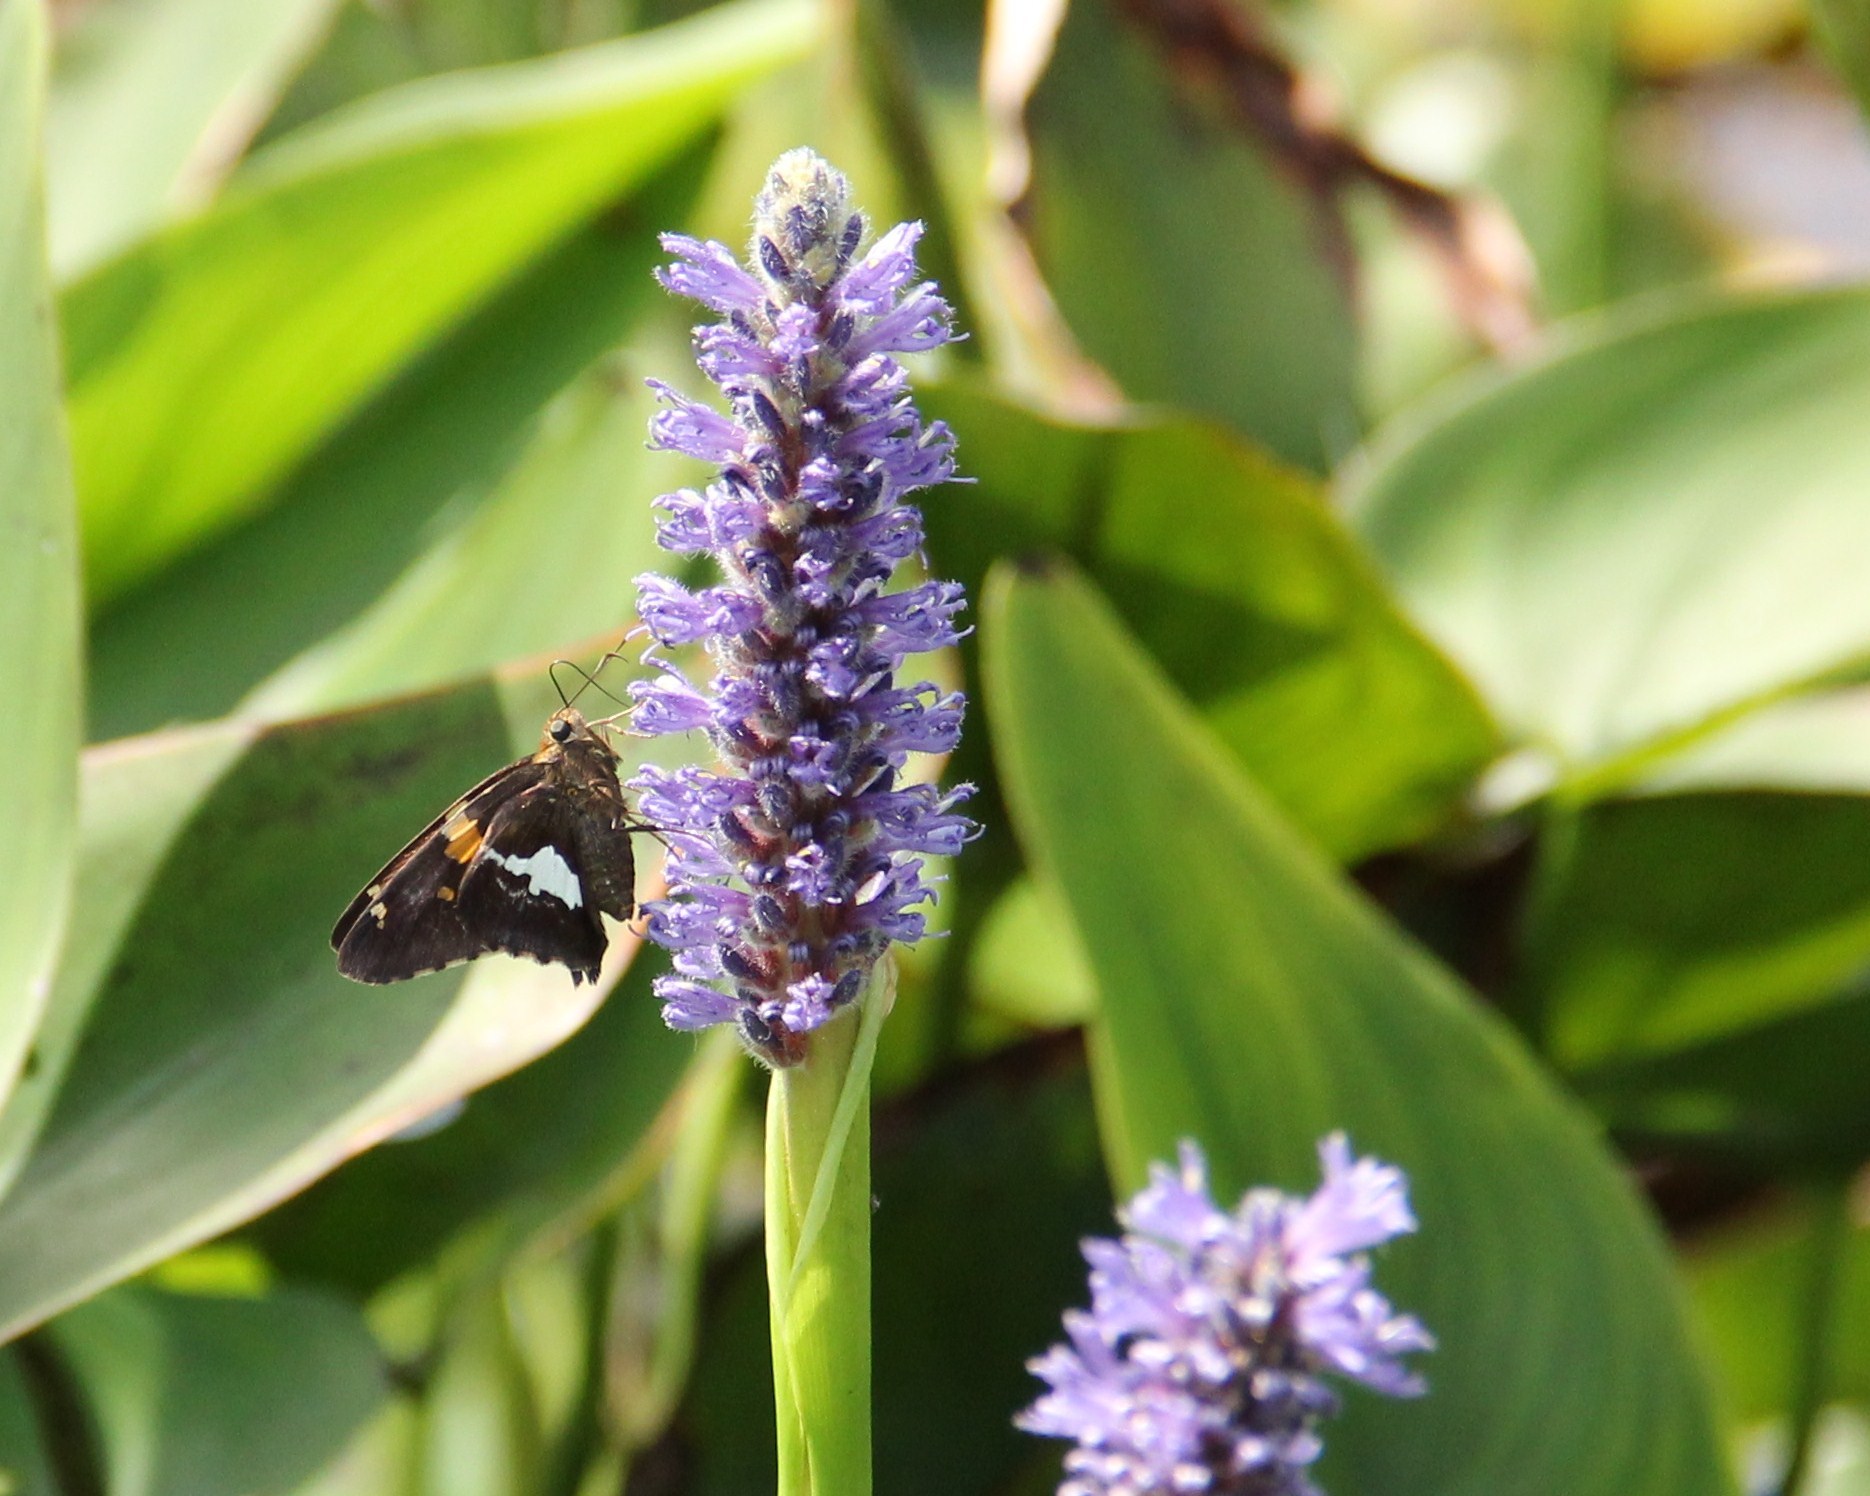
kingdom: Animalia
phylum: Arthropoda
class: Insecta
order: Lepidoptera
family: Hesperiidae
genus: Epargyreus
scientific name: Epargyreus clarus
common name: Silver-spotted skipper
